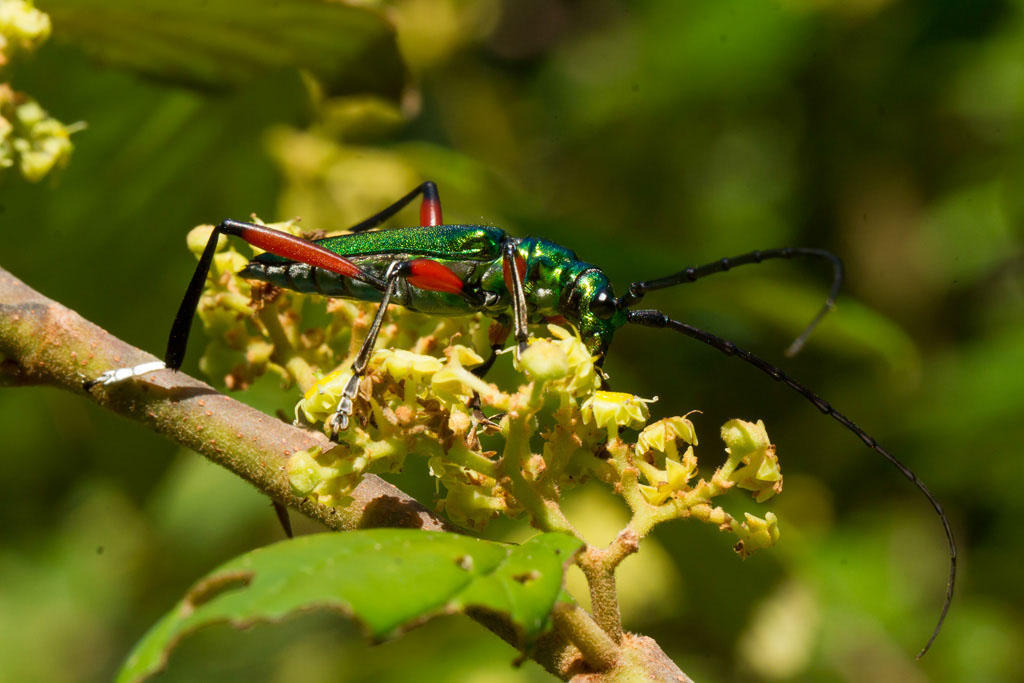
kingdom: Animalia
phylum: Arthropoda
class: Insecta
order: Coleoptera
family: Cerambycidae
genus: Philematium
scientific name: Philematium virens
